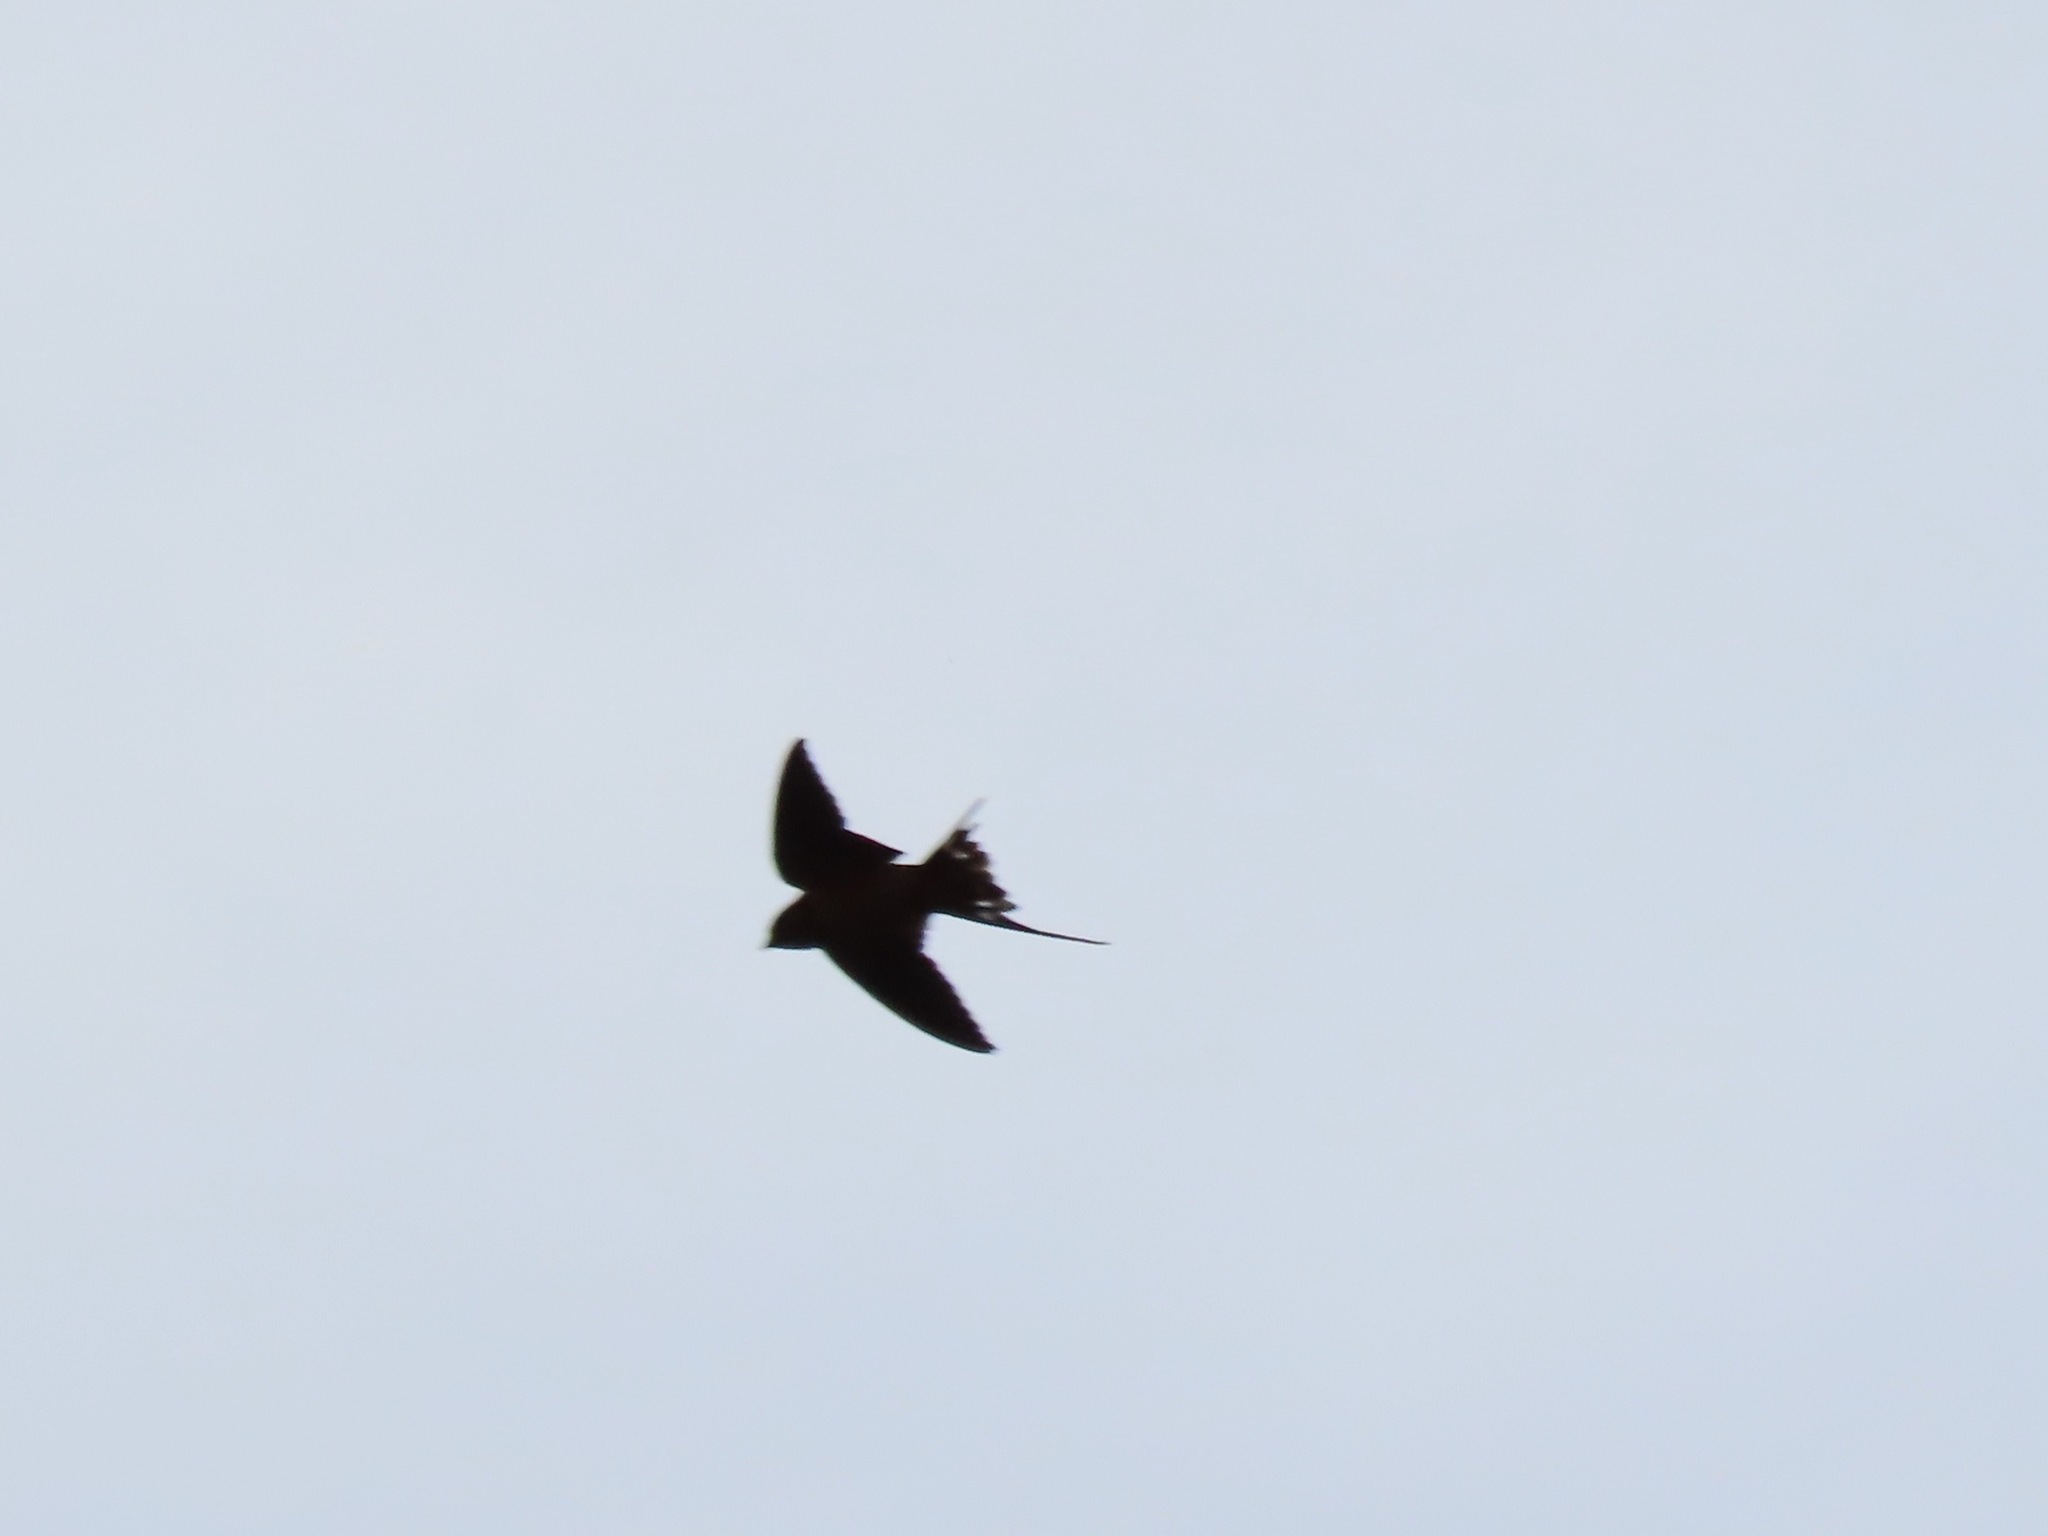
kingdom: Animalia
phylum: Chordata
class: Aves
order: Passeriformes
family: Hirundinidae
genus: Hirundo
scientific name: Hirundo rustica
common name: Barn swallow
